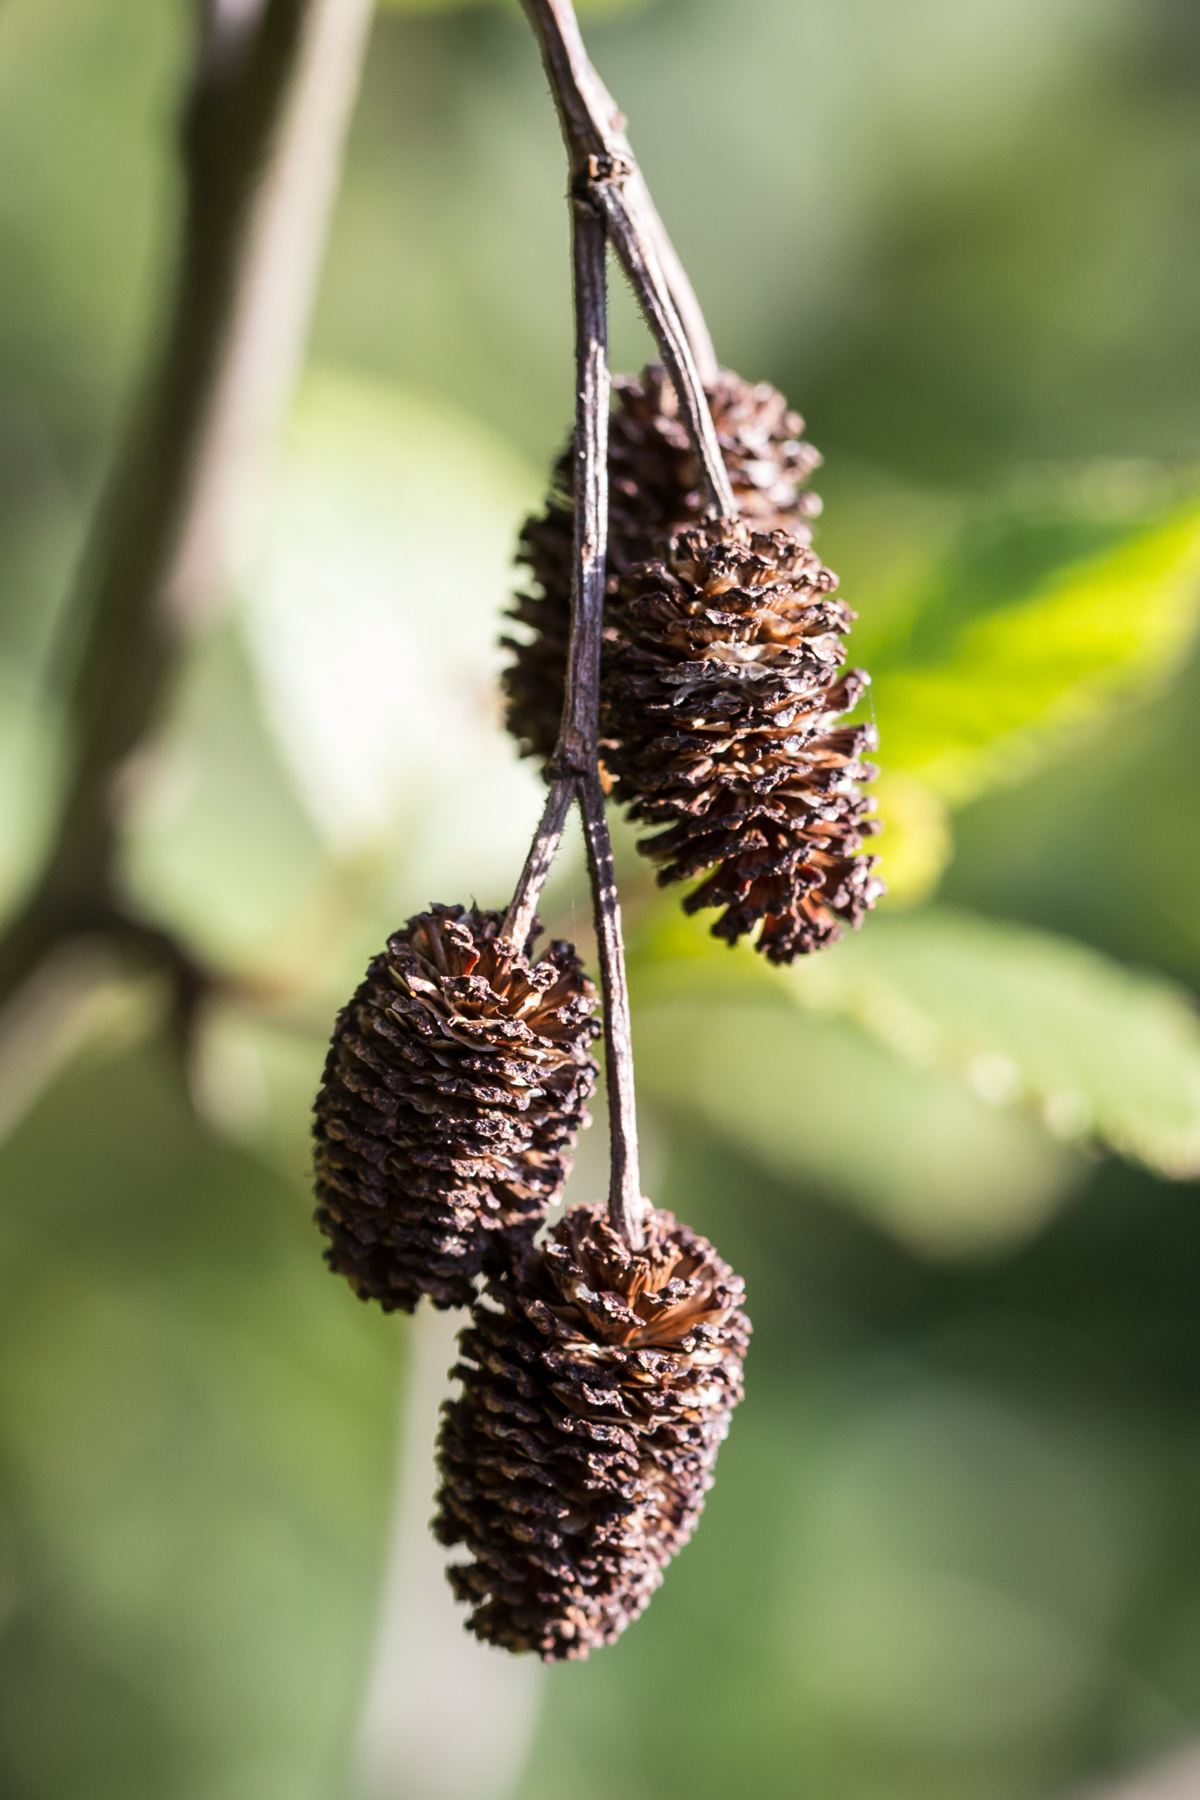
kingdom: Plantae
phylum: Tracheophyta
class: Magnoliopsida
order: Fagales
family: Betulaceae
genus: Alnus
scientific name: Alnus alnobetula
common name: Green alder
